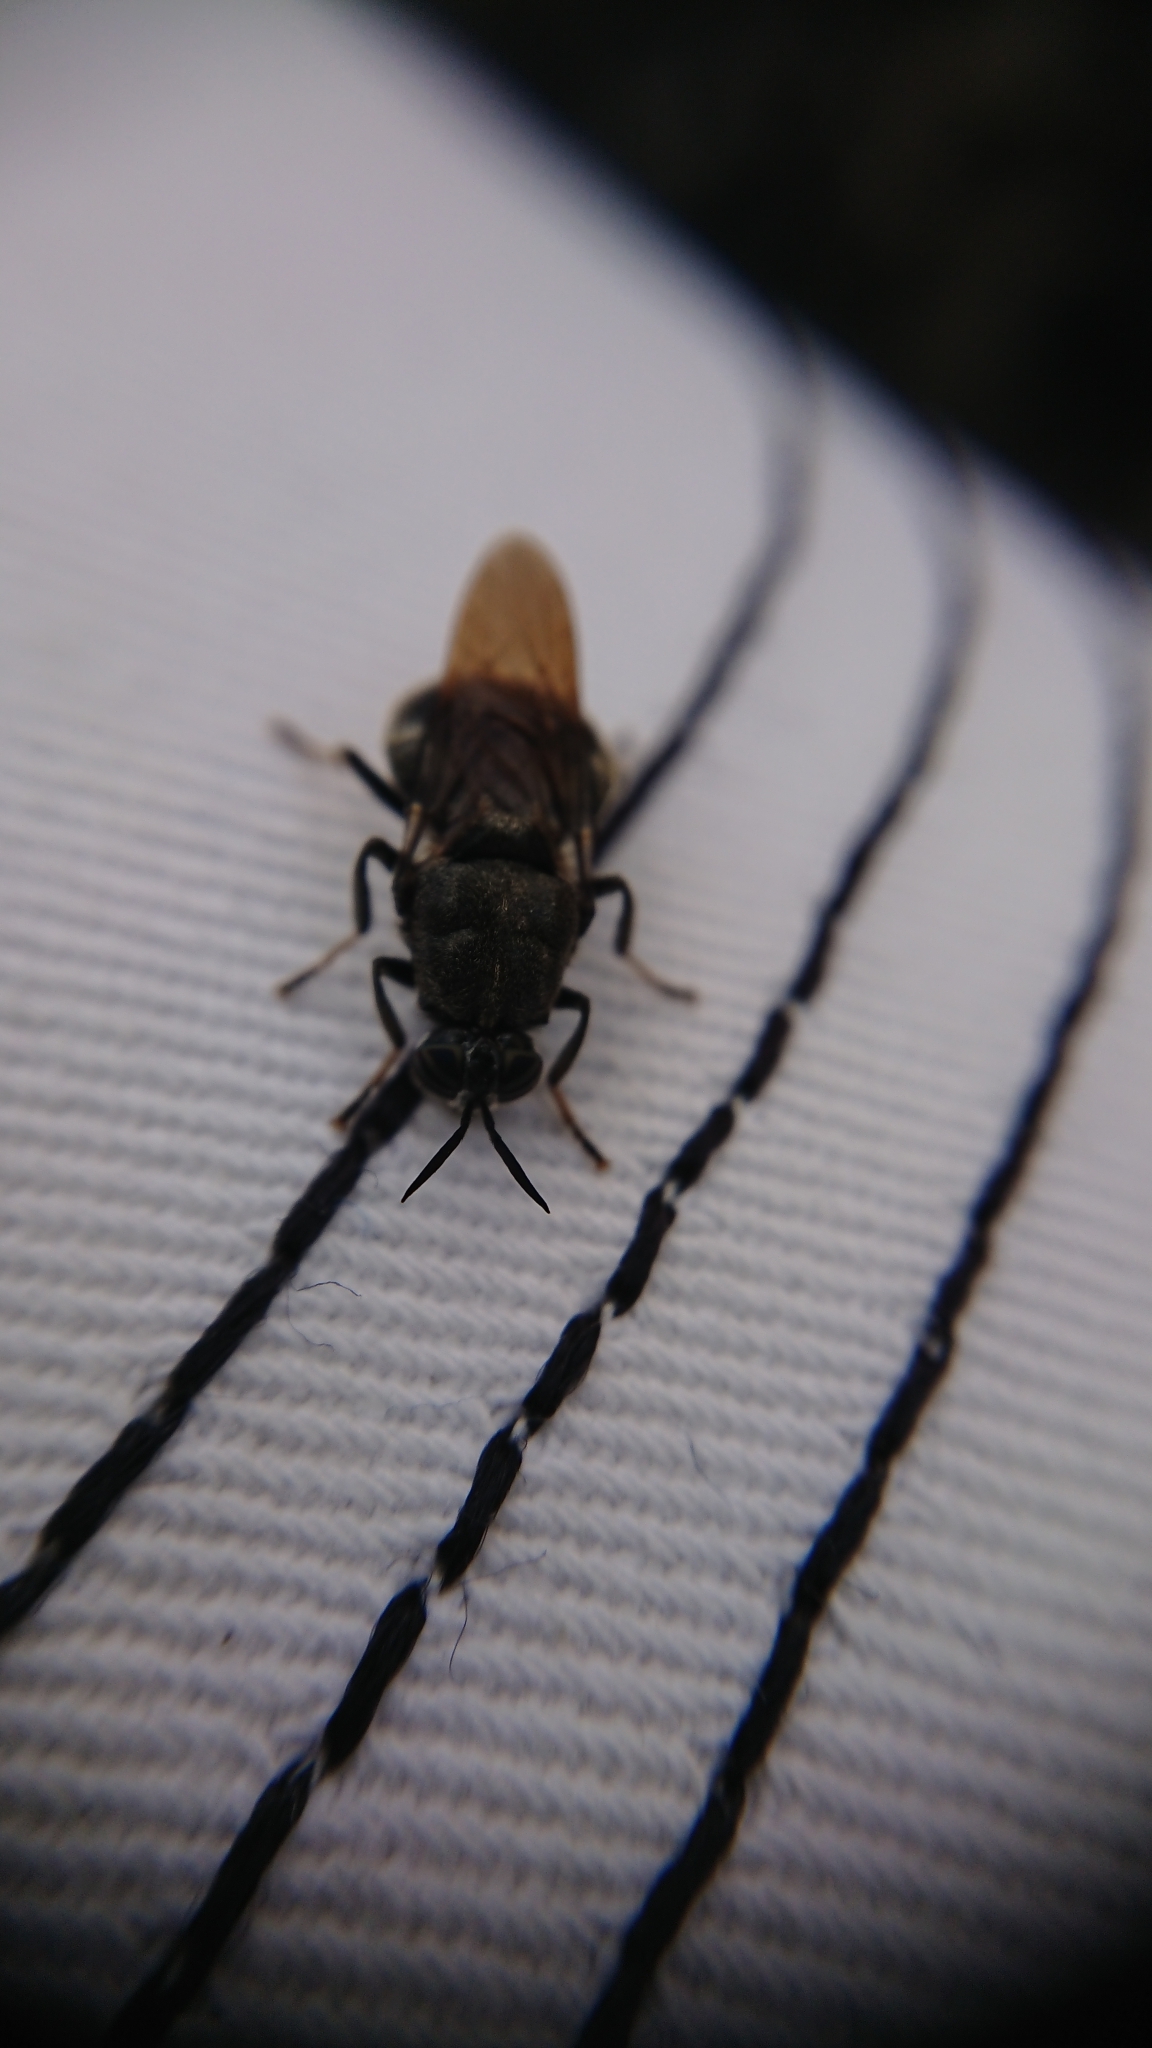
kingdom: Animalia
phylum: Arthropoda
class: Insecta
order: Diptera
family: Stratiomyidae
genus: Dicyphoma
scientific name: Dicyphoma schaefferi
